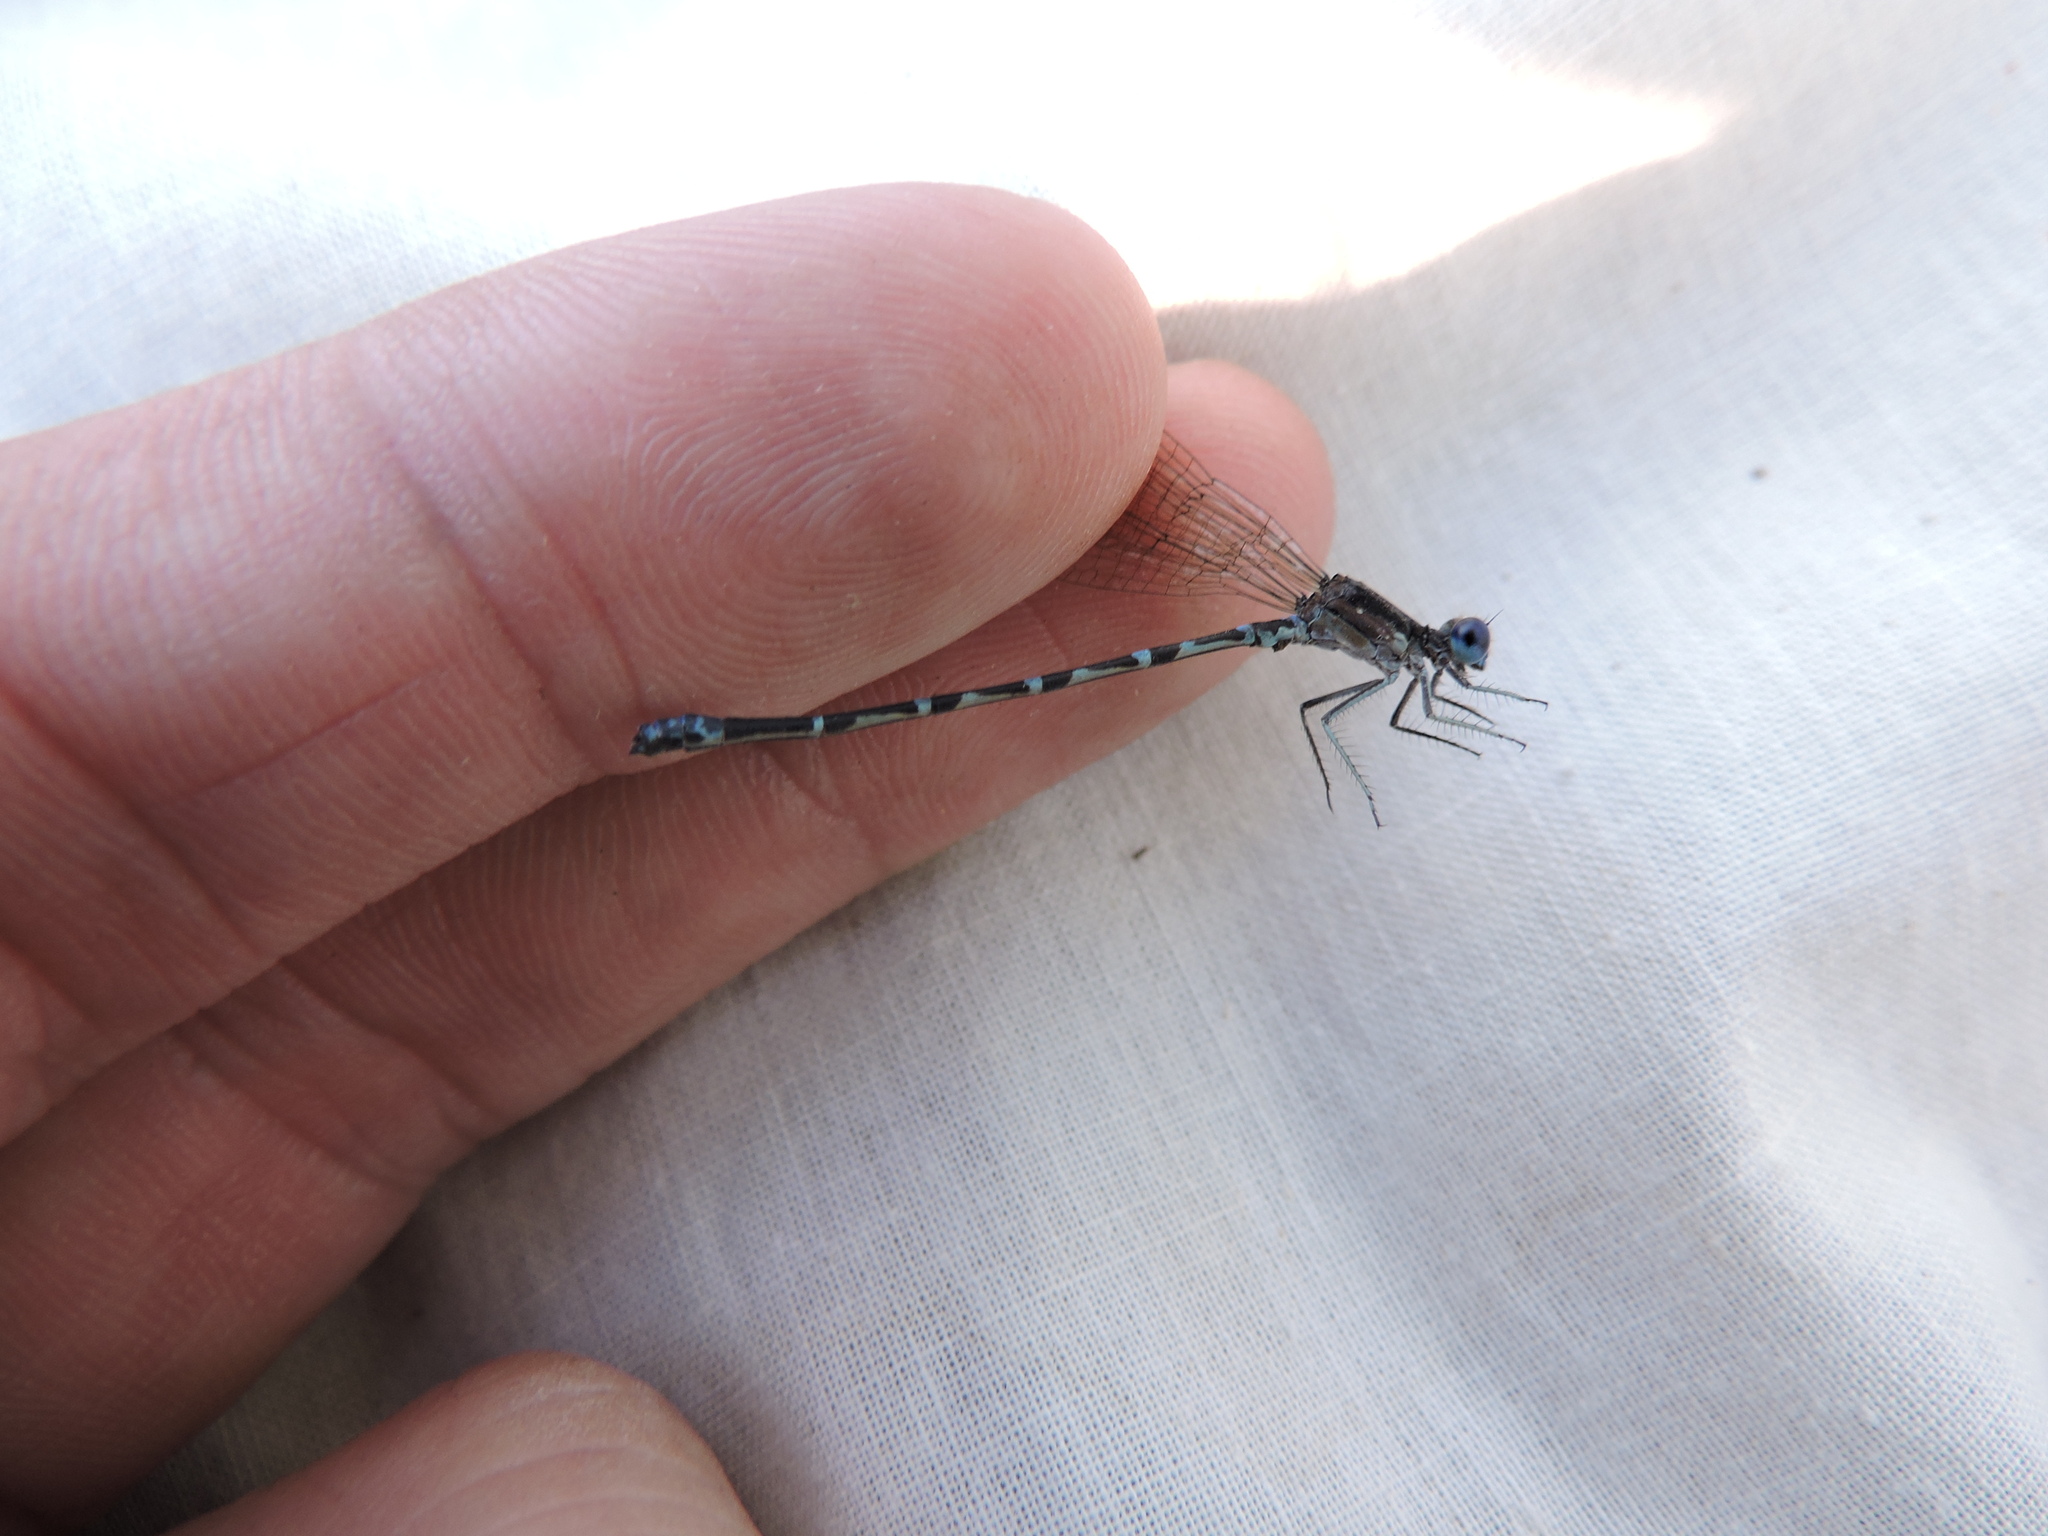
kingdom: Animalia
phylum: Arthropoda
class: Insecta
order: Odonata
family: Coenagrionidae
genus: Argia
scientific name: Argia sedula
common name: Blue-ringed dancer
